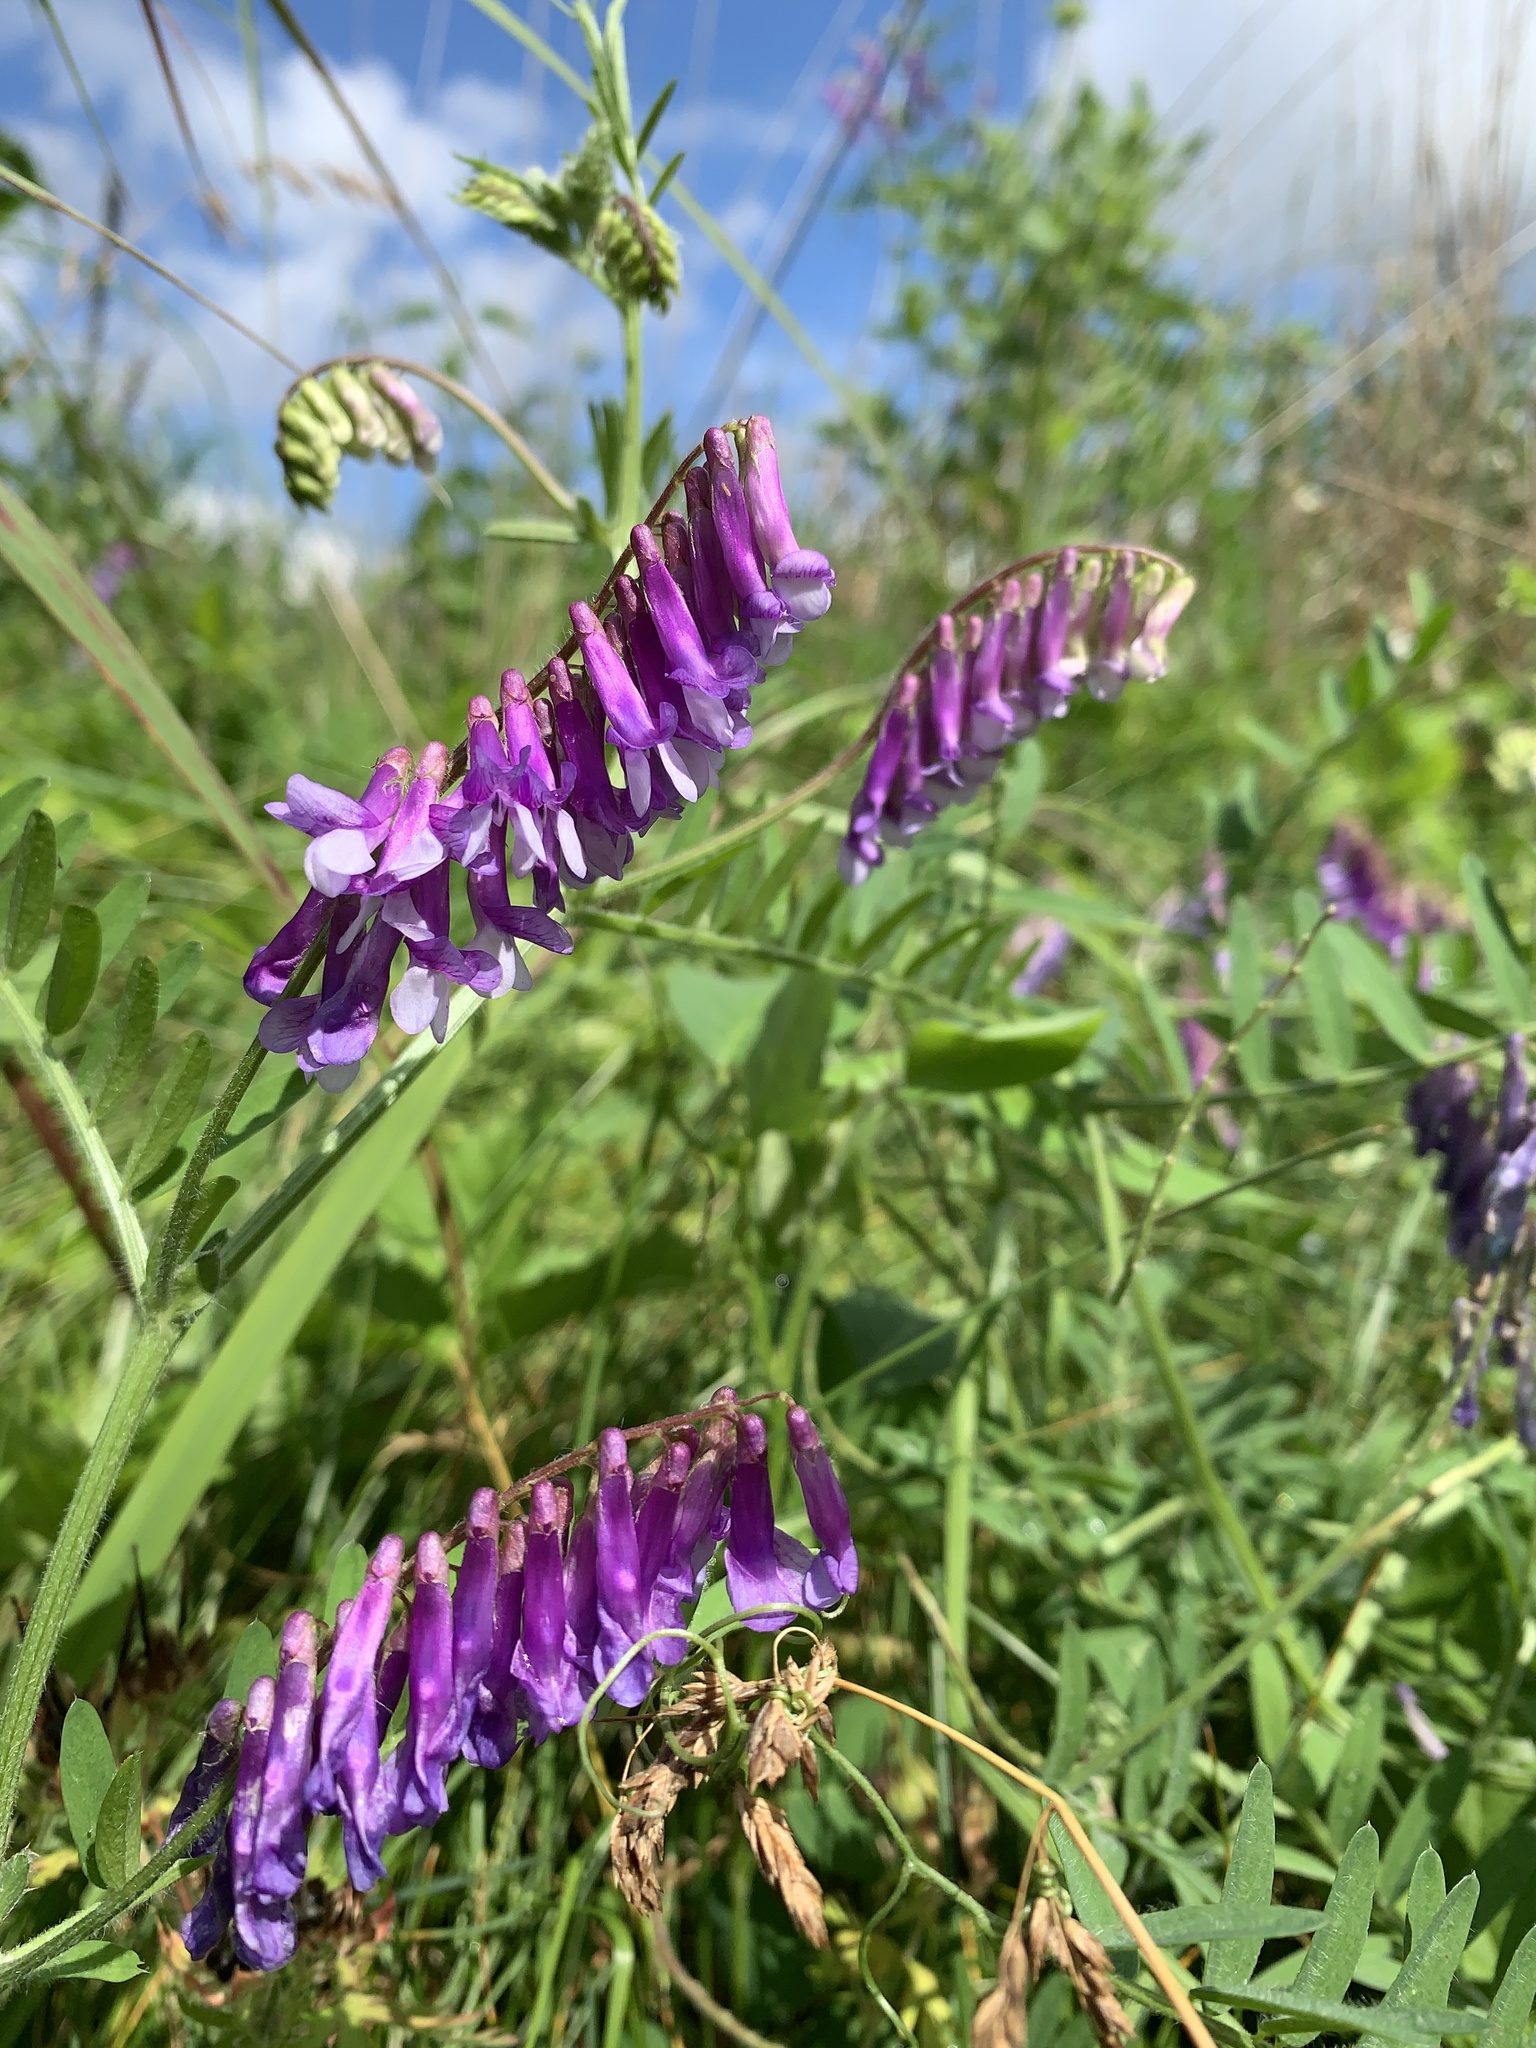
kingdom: Plantae
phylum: Tracheophyta
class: Magnoliopsida
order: Fabales
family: Fabaceae
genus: Vicia
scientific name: Vicia villosa
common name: Fodder vetch
